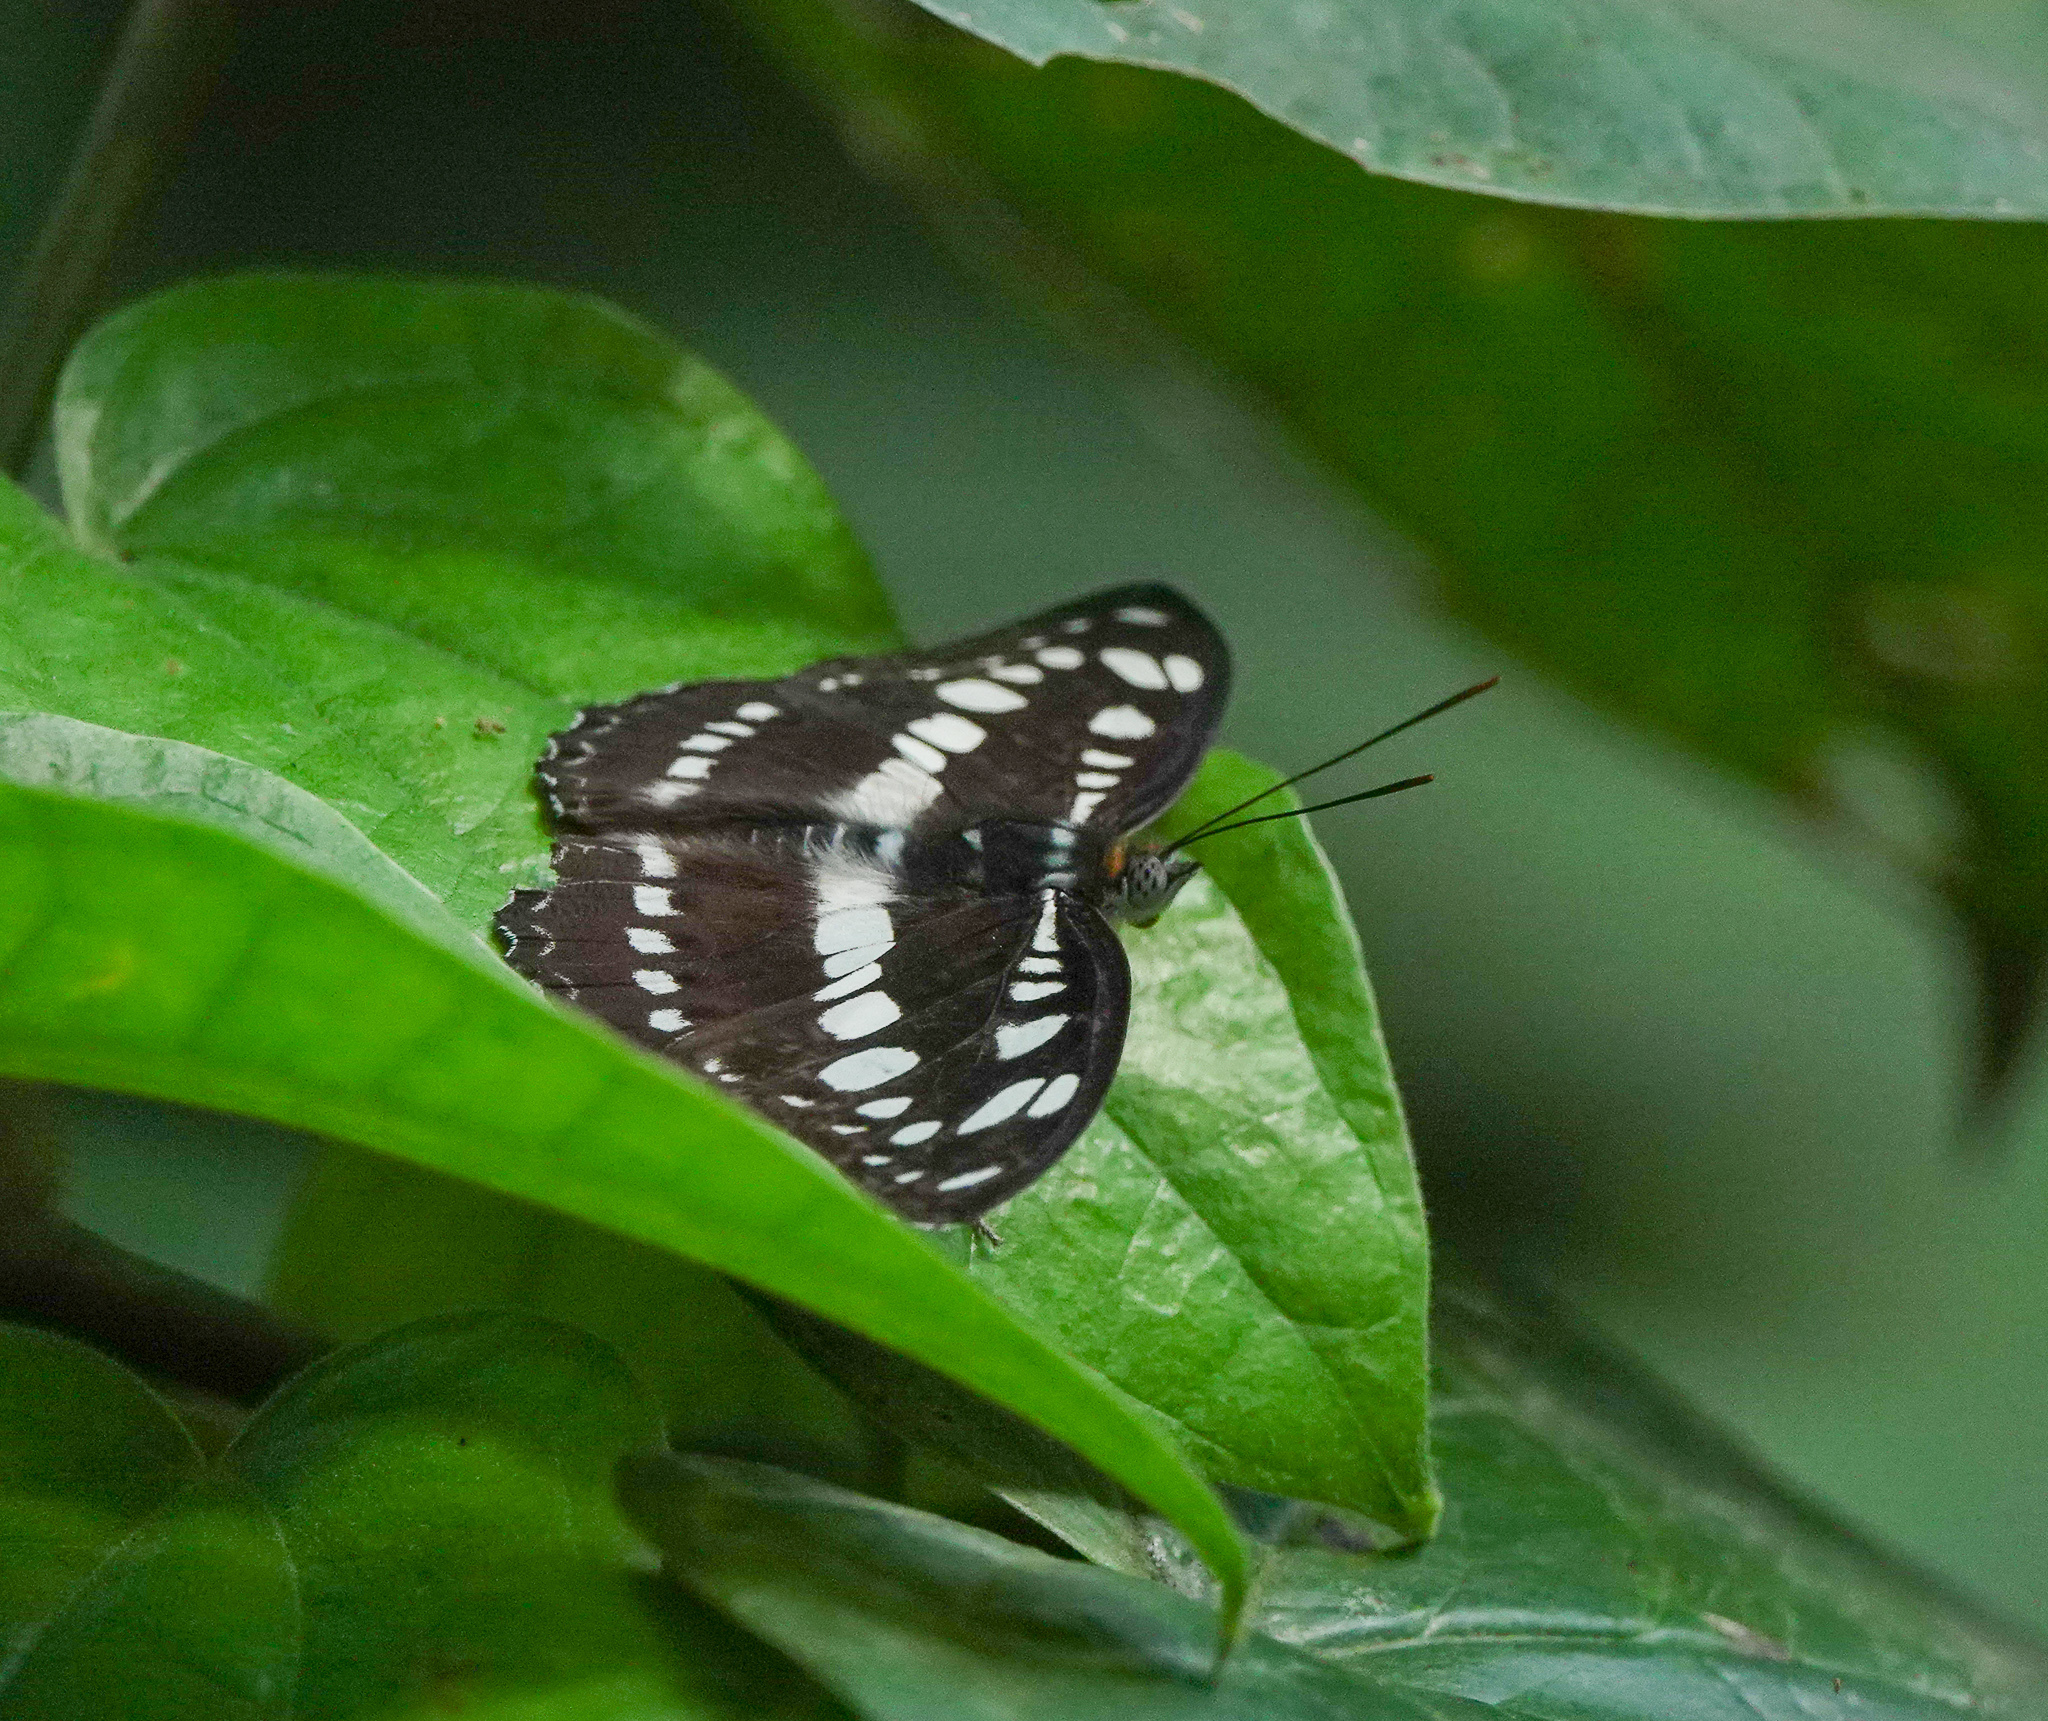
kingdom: Animalia
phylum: Arthropoda
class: Insecta
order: Lepidoptera
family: Nymphalidae
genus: Parathyma
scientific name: Parathyma perius
